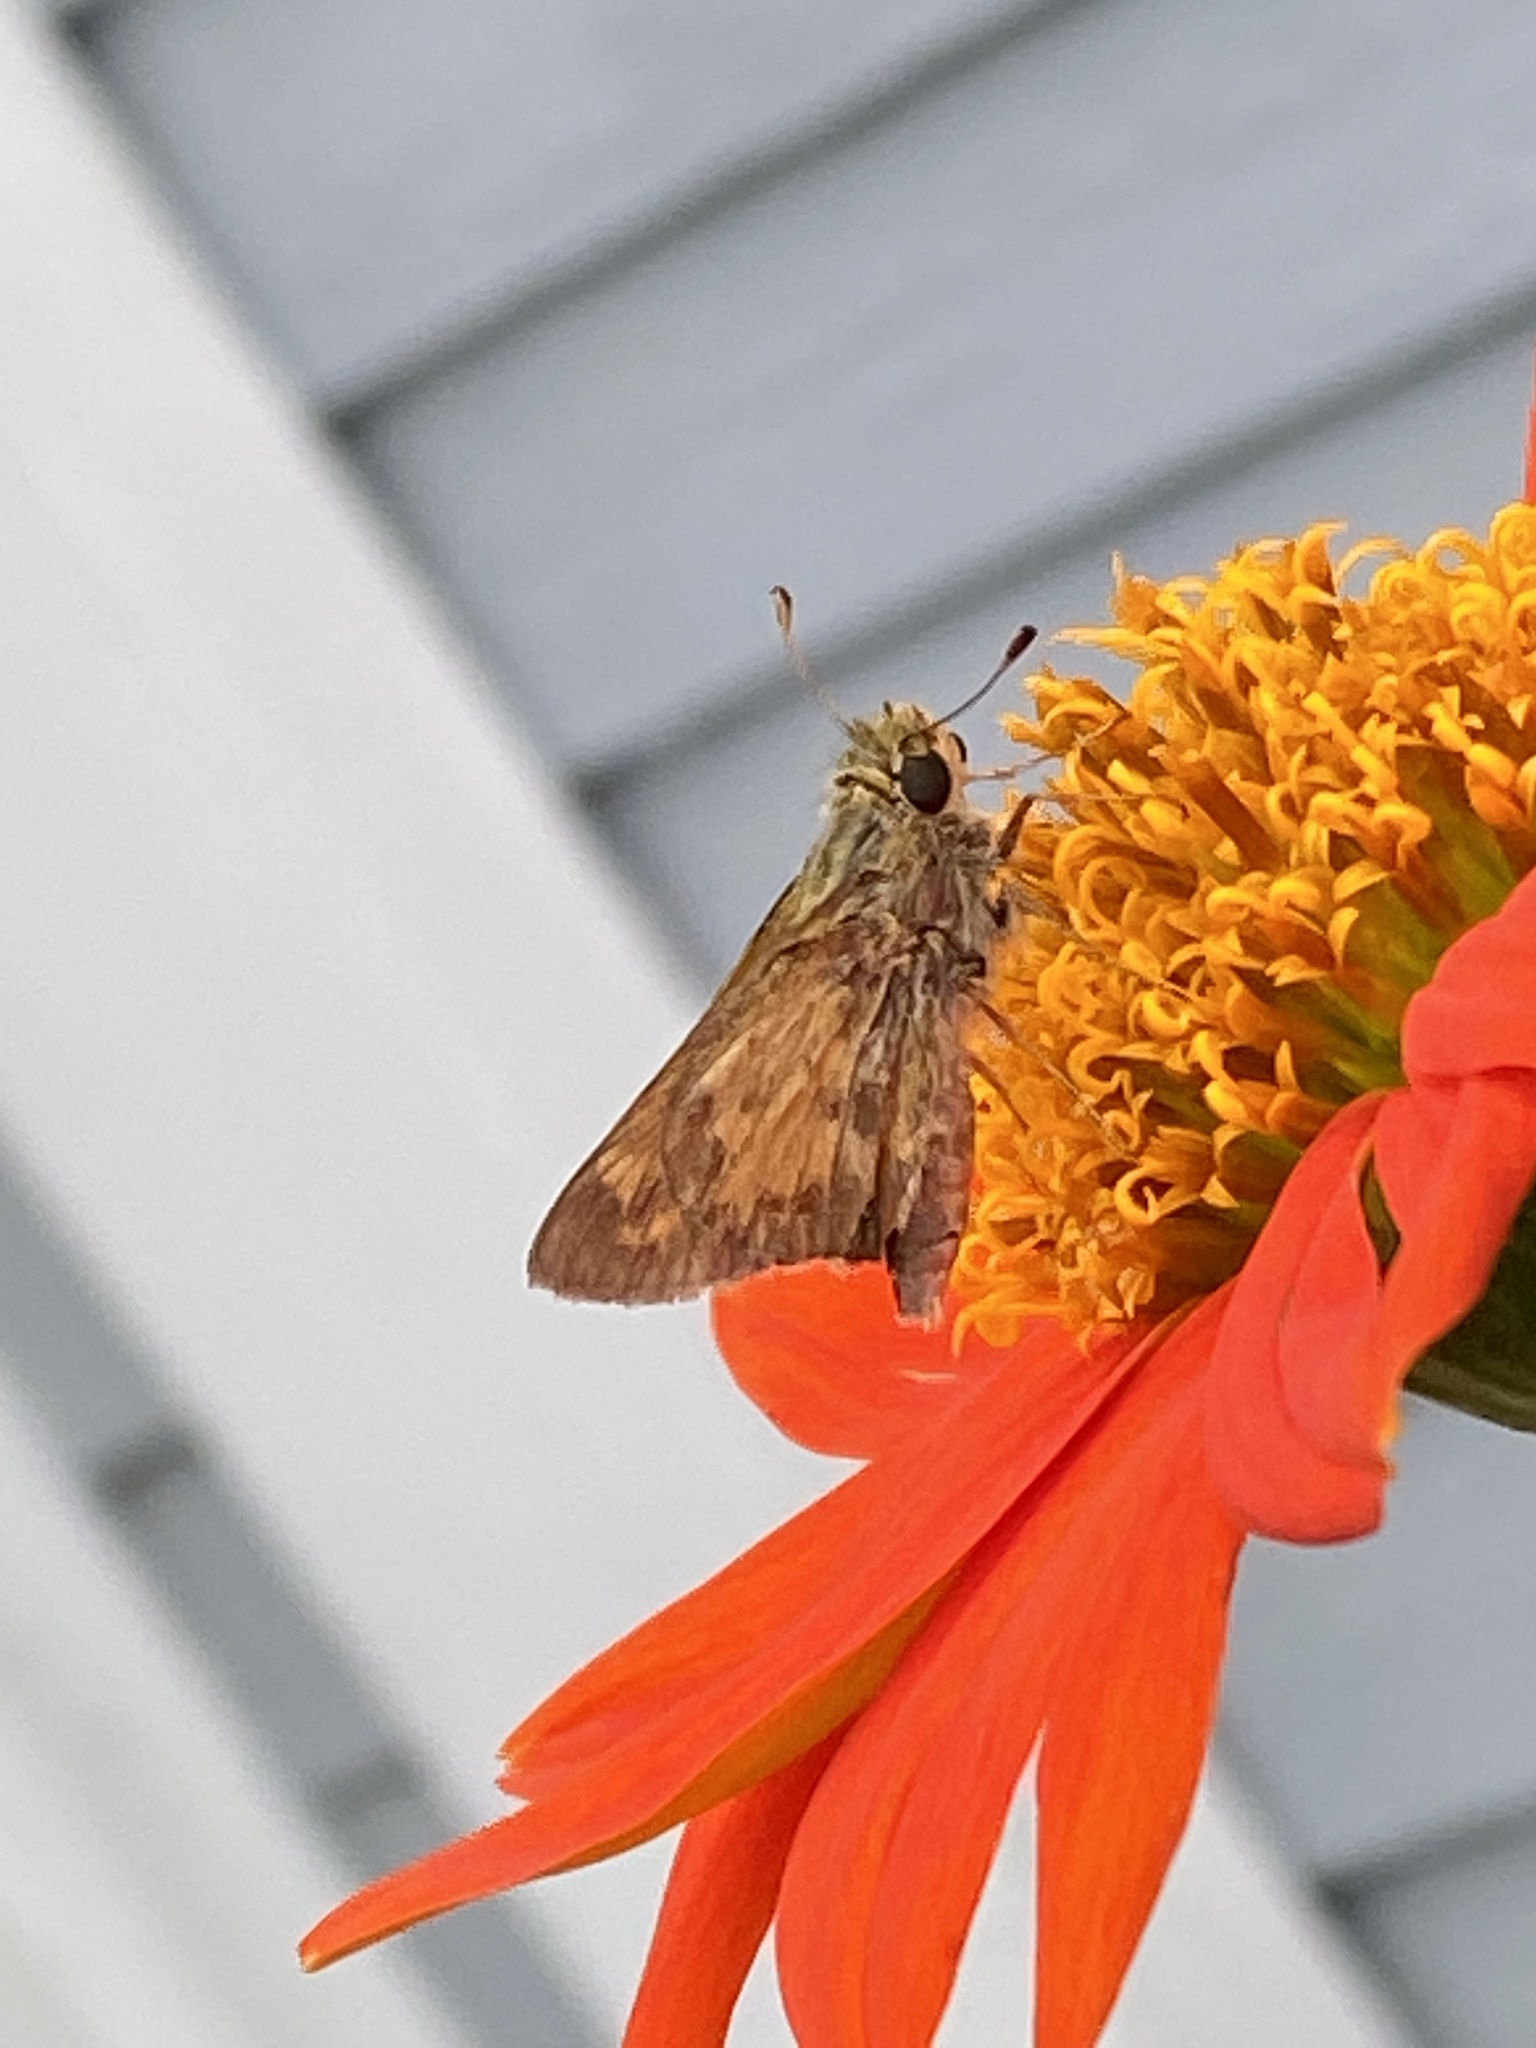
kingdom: Animalia
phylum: Arthropoda
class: Insecta
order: Lepidoptera
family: Hesperiidae
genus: Atalopedes
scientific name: Atalopedes
